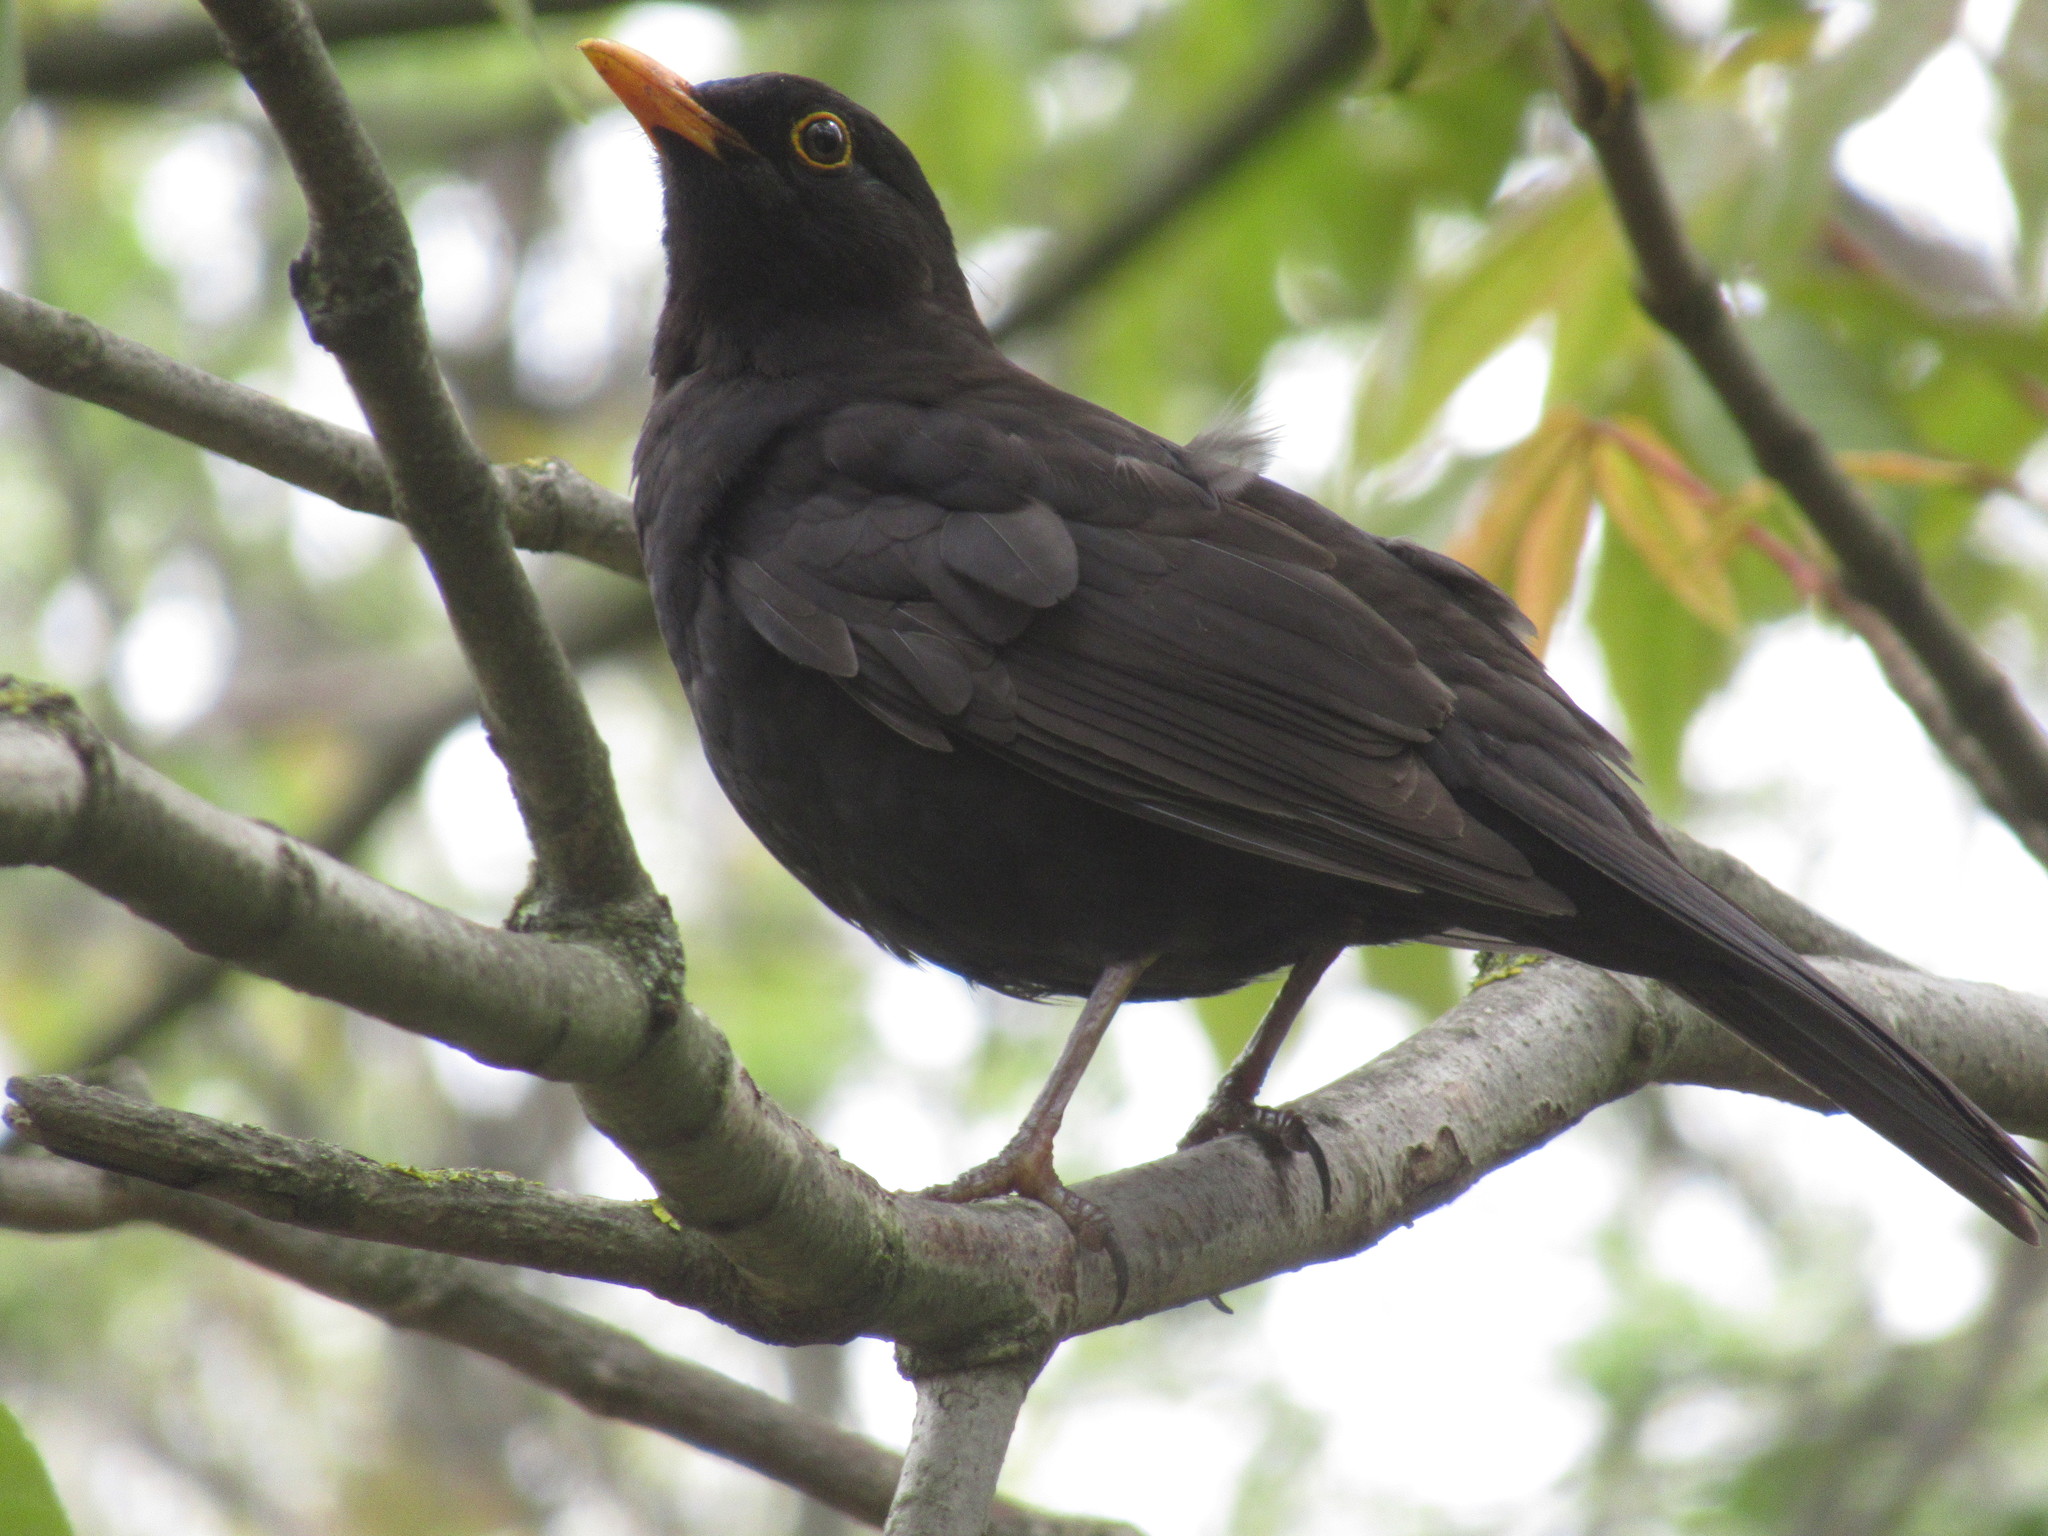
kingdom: Animalia
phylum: Chordata
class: Aves
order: Passeriformes
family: Turdidae
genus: Turdus
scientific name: Turdus merula
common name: Common blackbird
